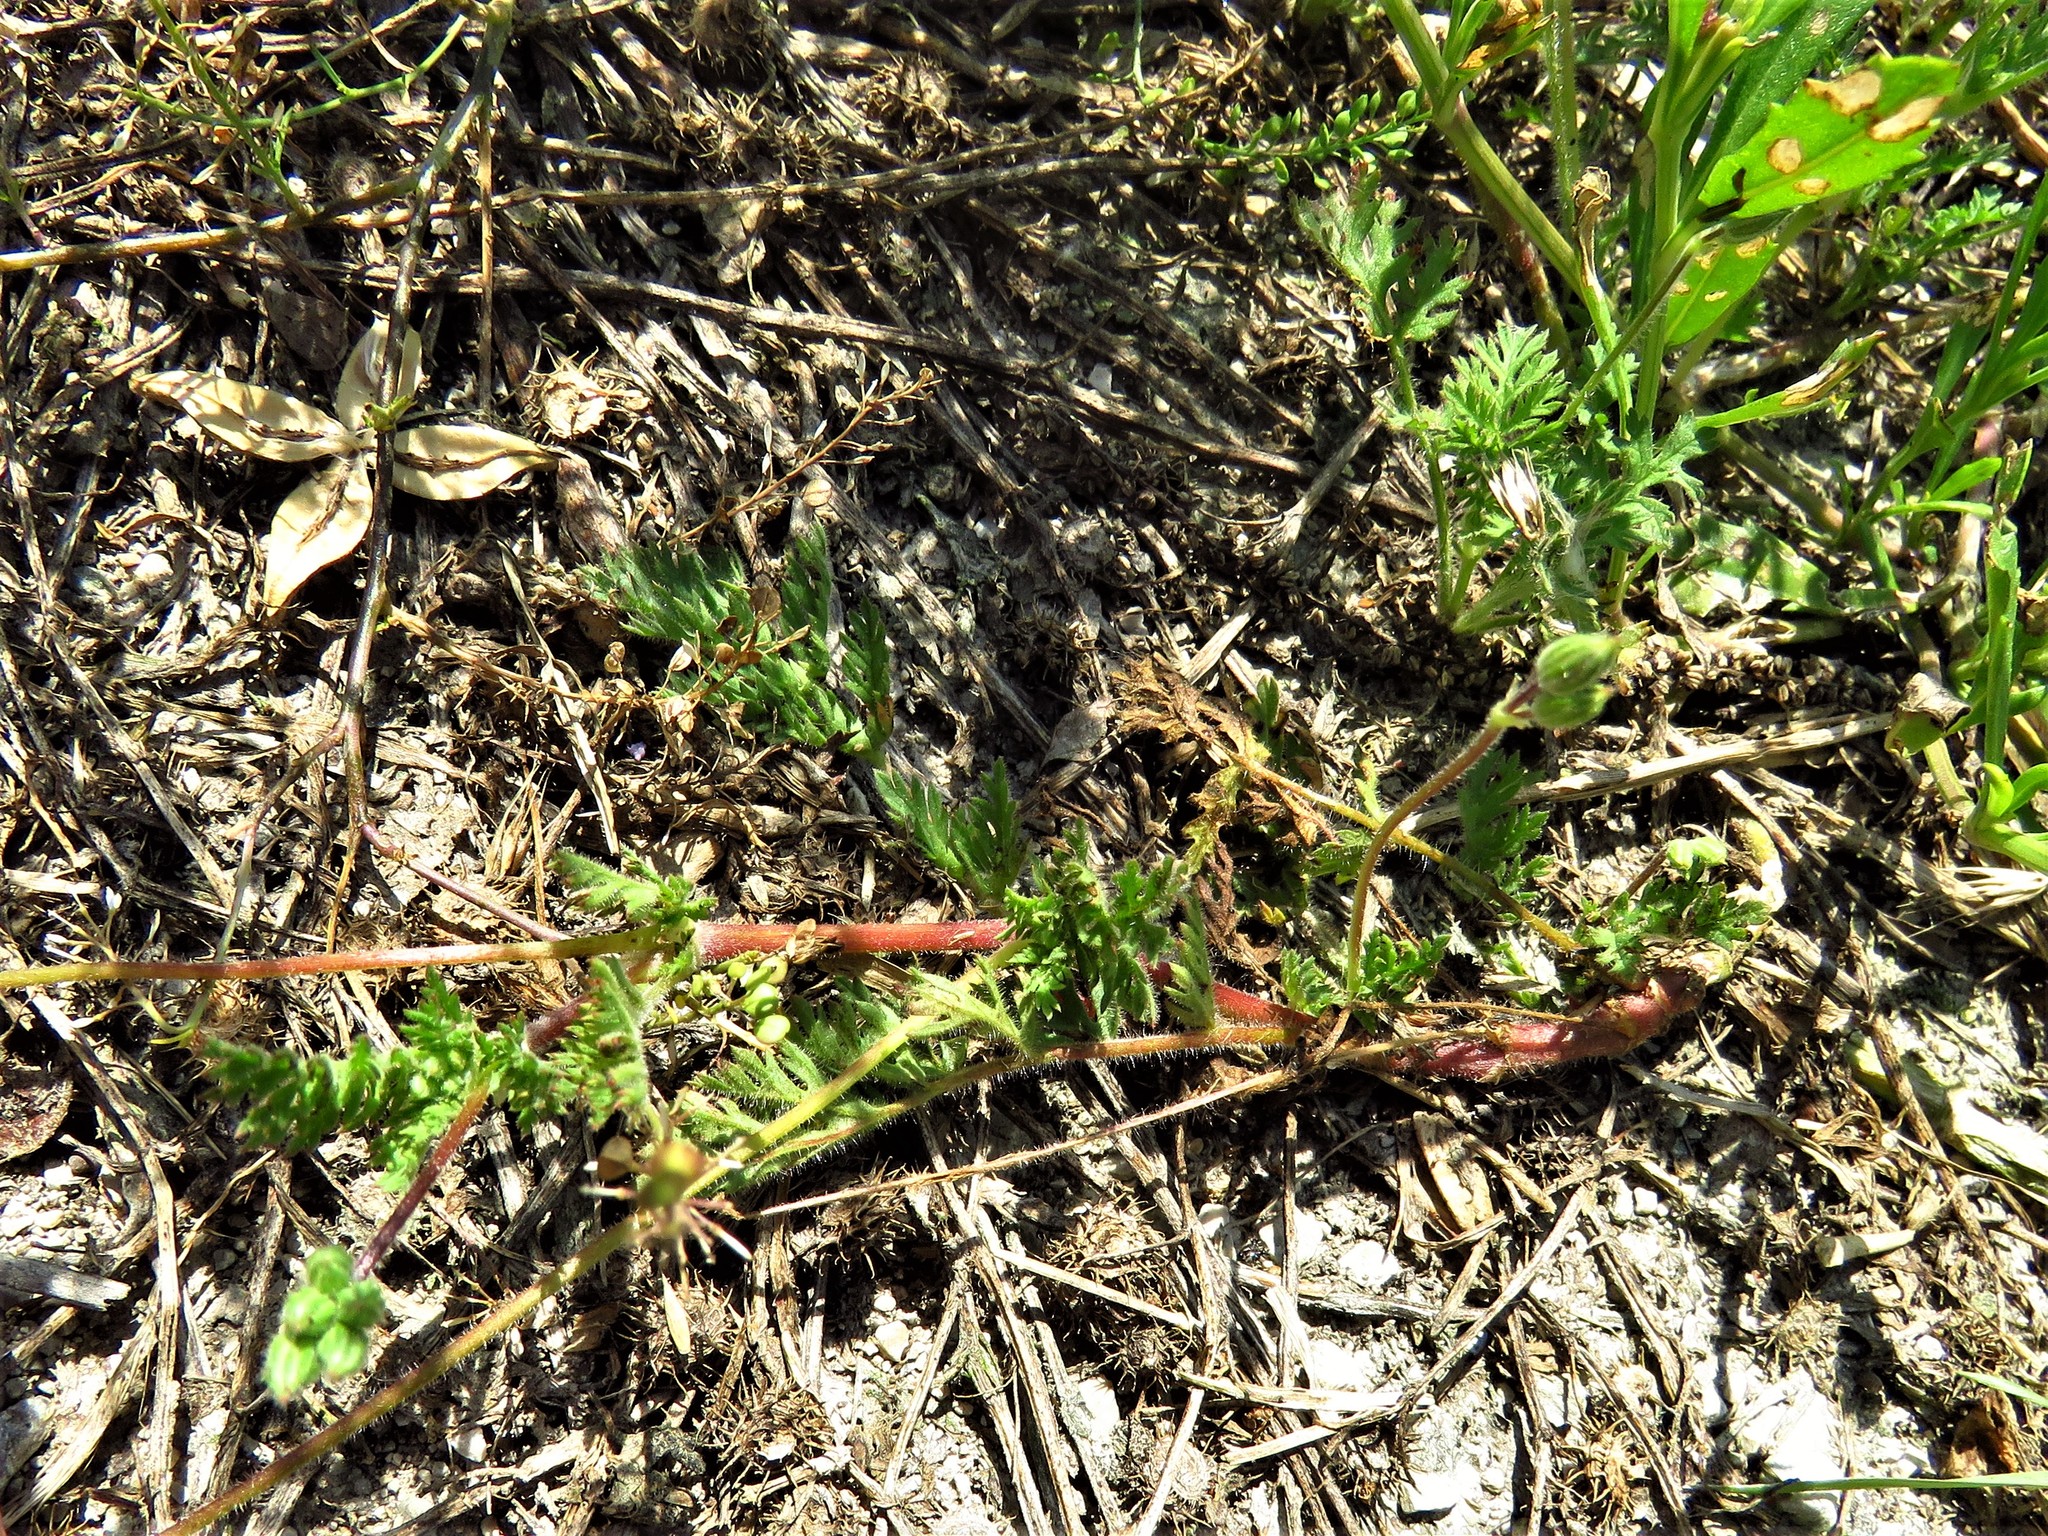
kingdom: Plantae
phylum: Tracheophyta
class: Magnoliopsida
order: Geraniales
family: Geraniaceae
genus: Erodium
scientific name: Erodium cicutarium
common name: Common stork's-bill
